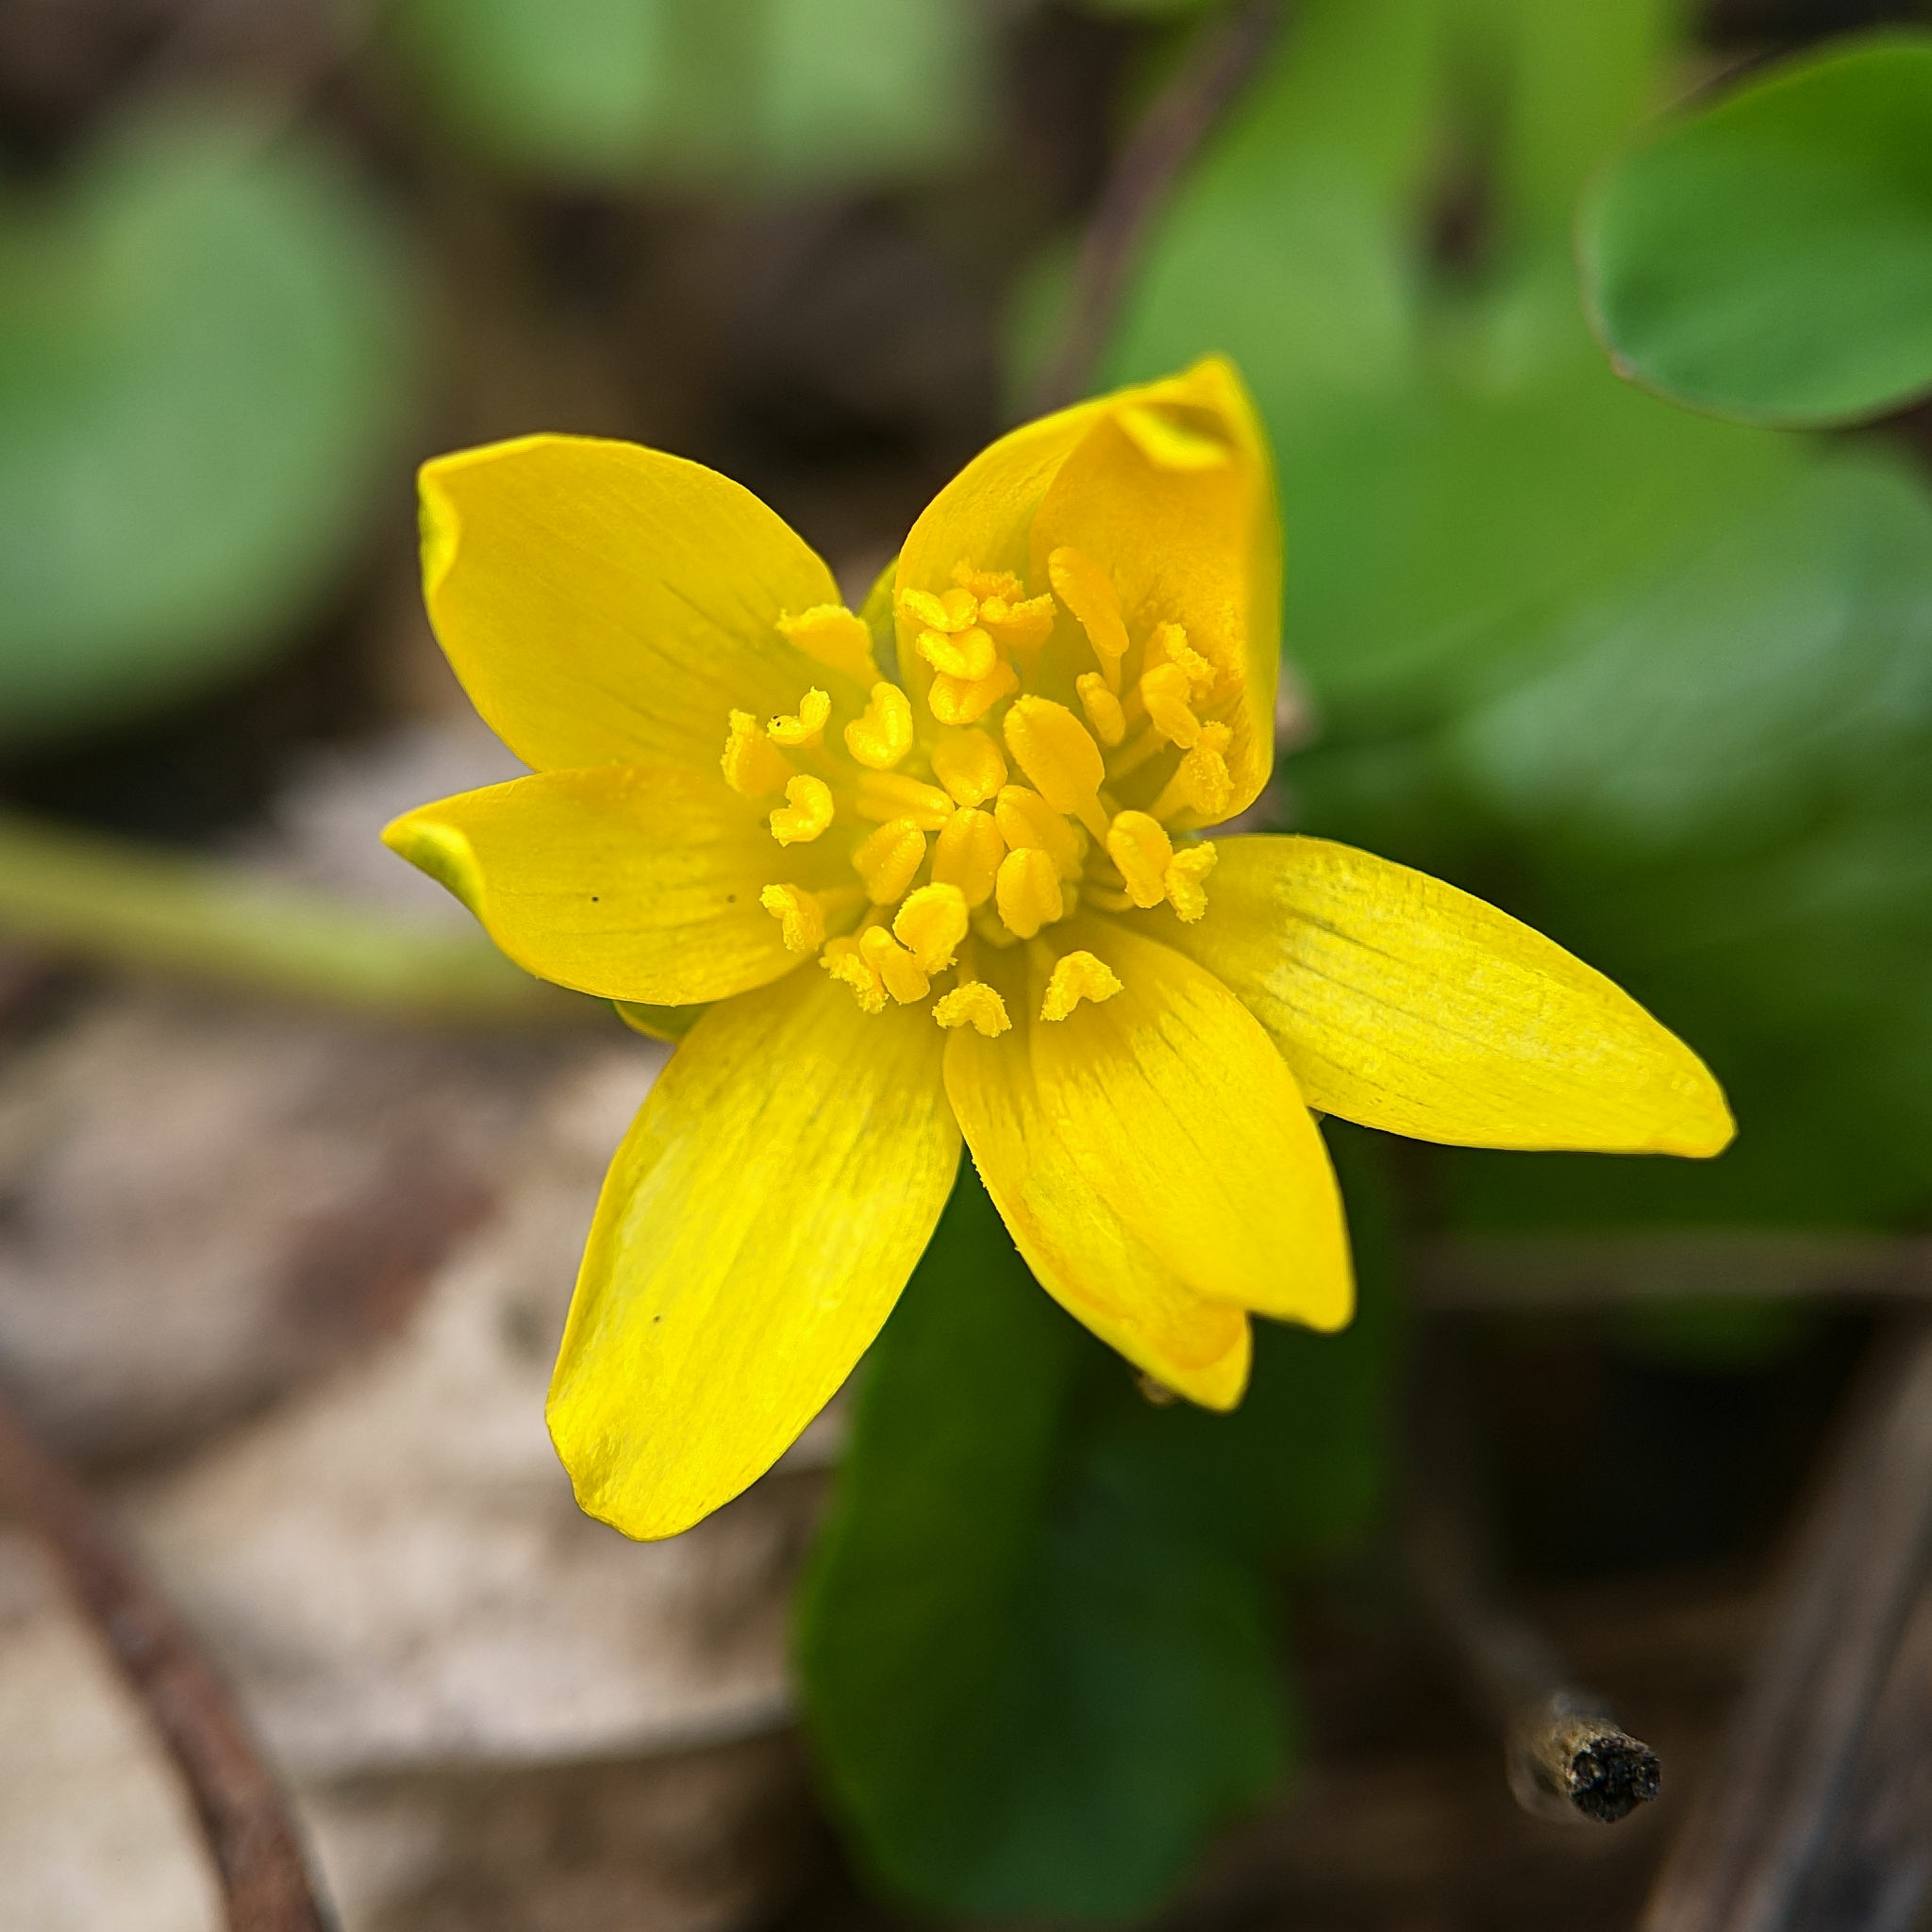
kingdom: Plantae
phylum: Tracheophyta
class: Magnoliopsida
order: Ranunculales
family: Ranunculaceae
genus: Ficaria
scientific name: Ficaria verna
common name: Lesser celandine
